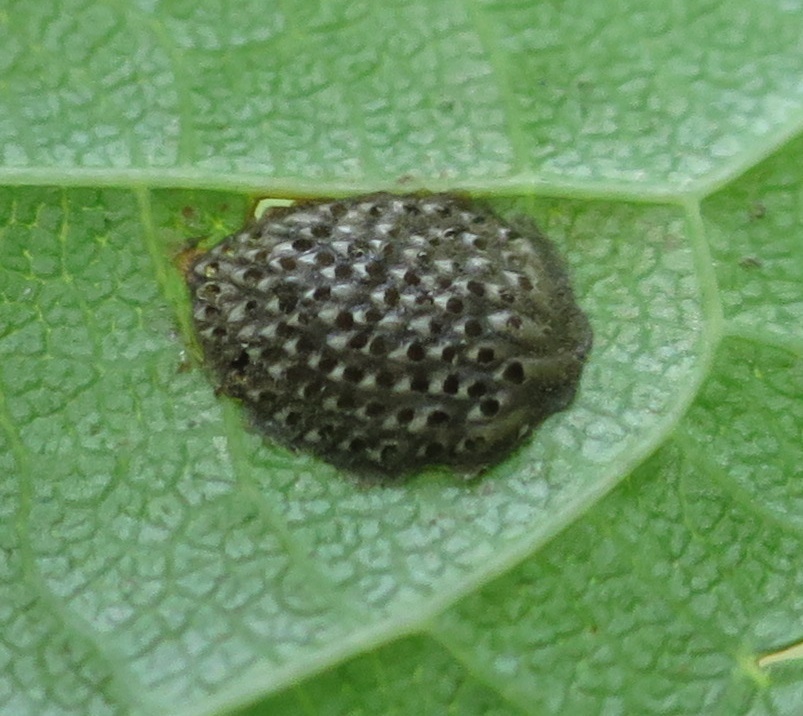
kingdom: Animalia
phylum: Arthropoda
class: Insecta
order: Hemiptera
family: Flatidae
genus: Siphanta
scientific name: Siphanta acuta
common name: Torpedo bug
